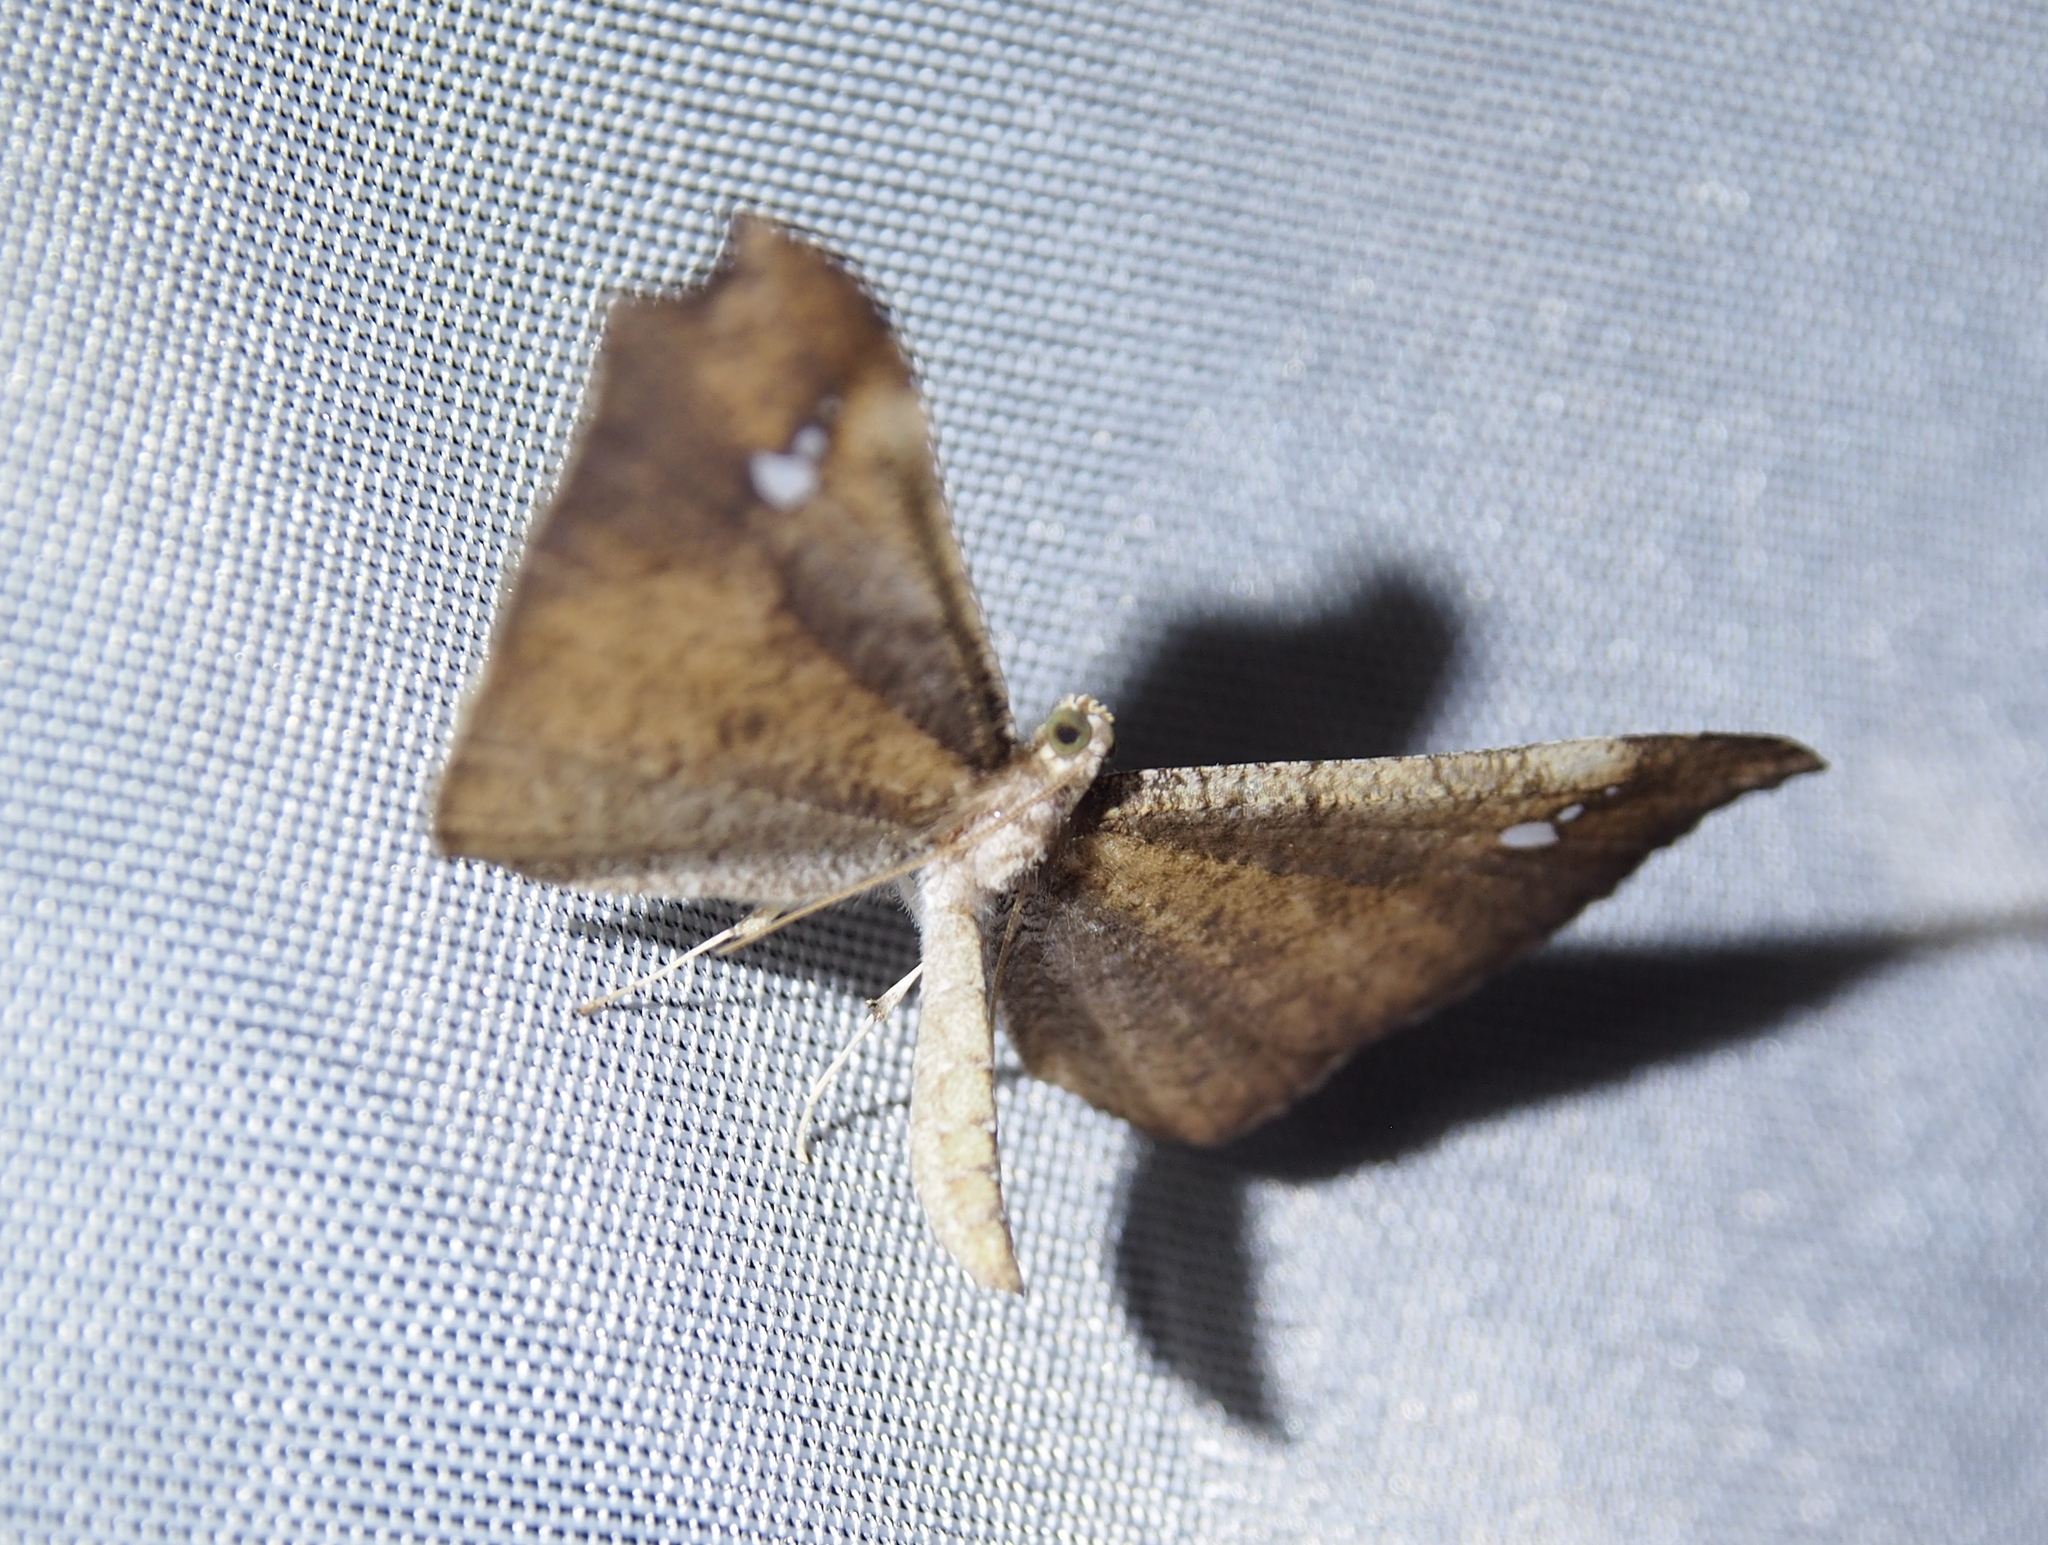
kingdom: Animalia
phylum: Arthropoda
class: Insecta
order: Lepidoptera
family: Hedylidae
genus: Macrosoma
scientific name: Macrosoma muscerdata
